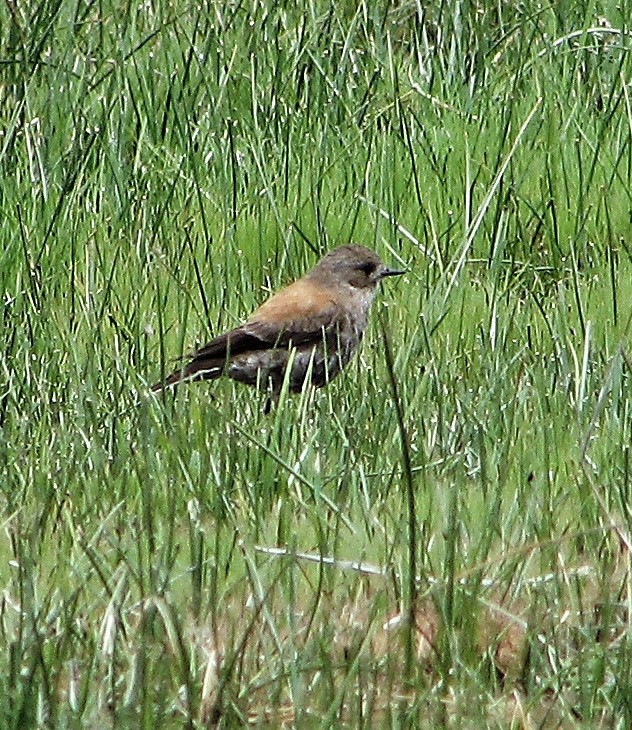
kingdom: Animalia
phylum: Chordata
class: Aves
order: Passeriformes
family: Tyrannidae
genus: Lessonia
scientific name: Lessonia rufa
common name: Austral negrito
